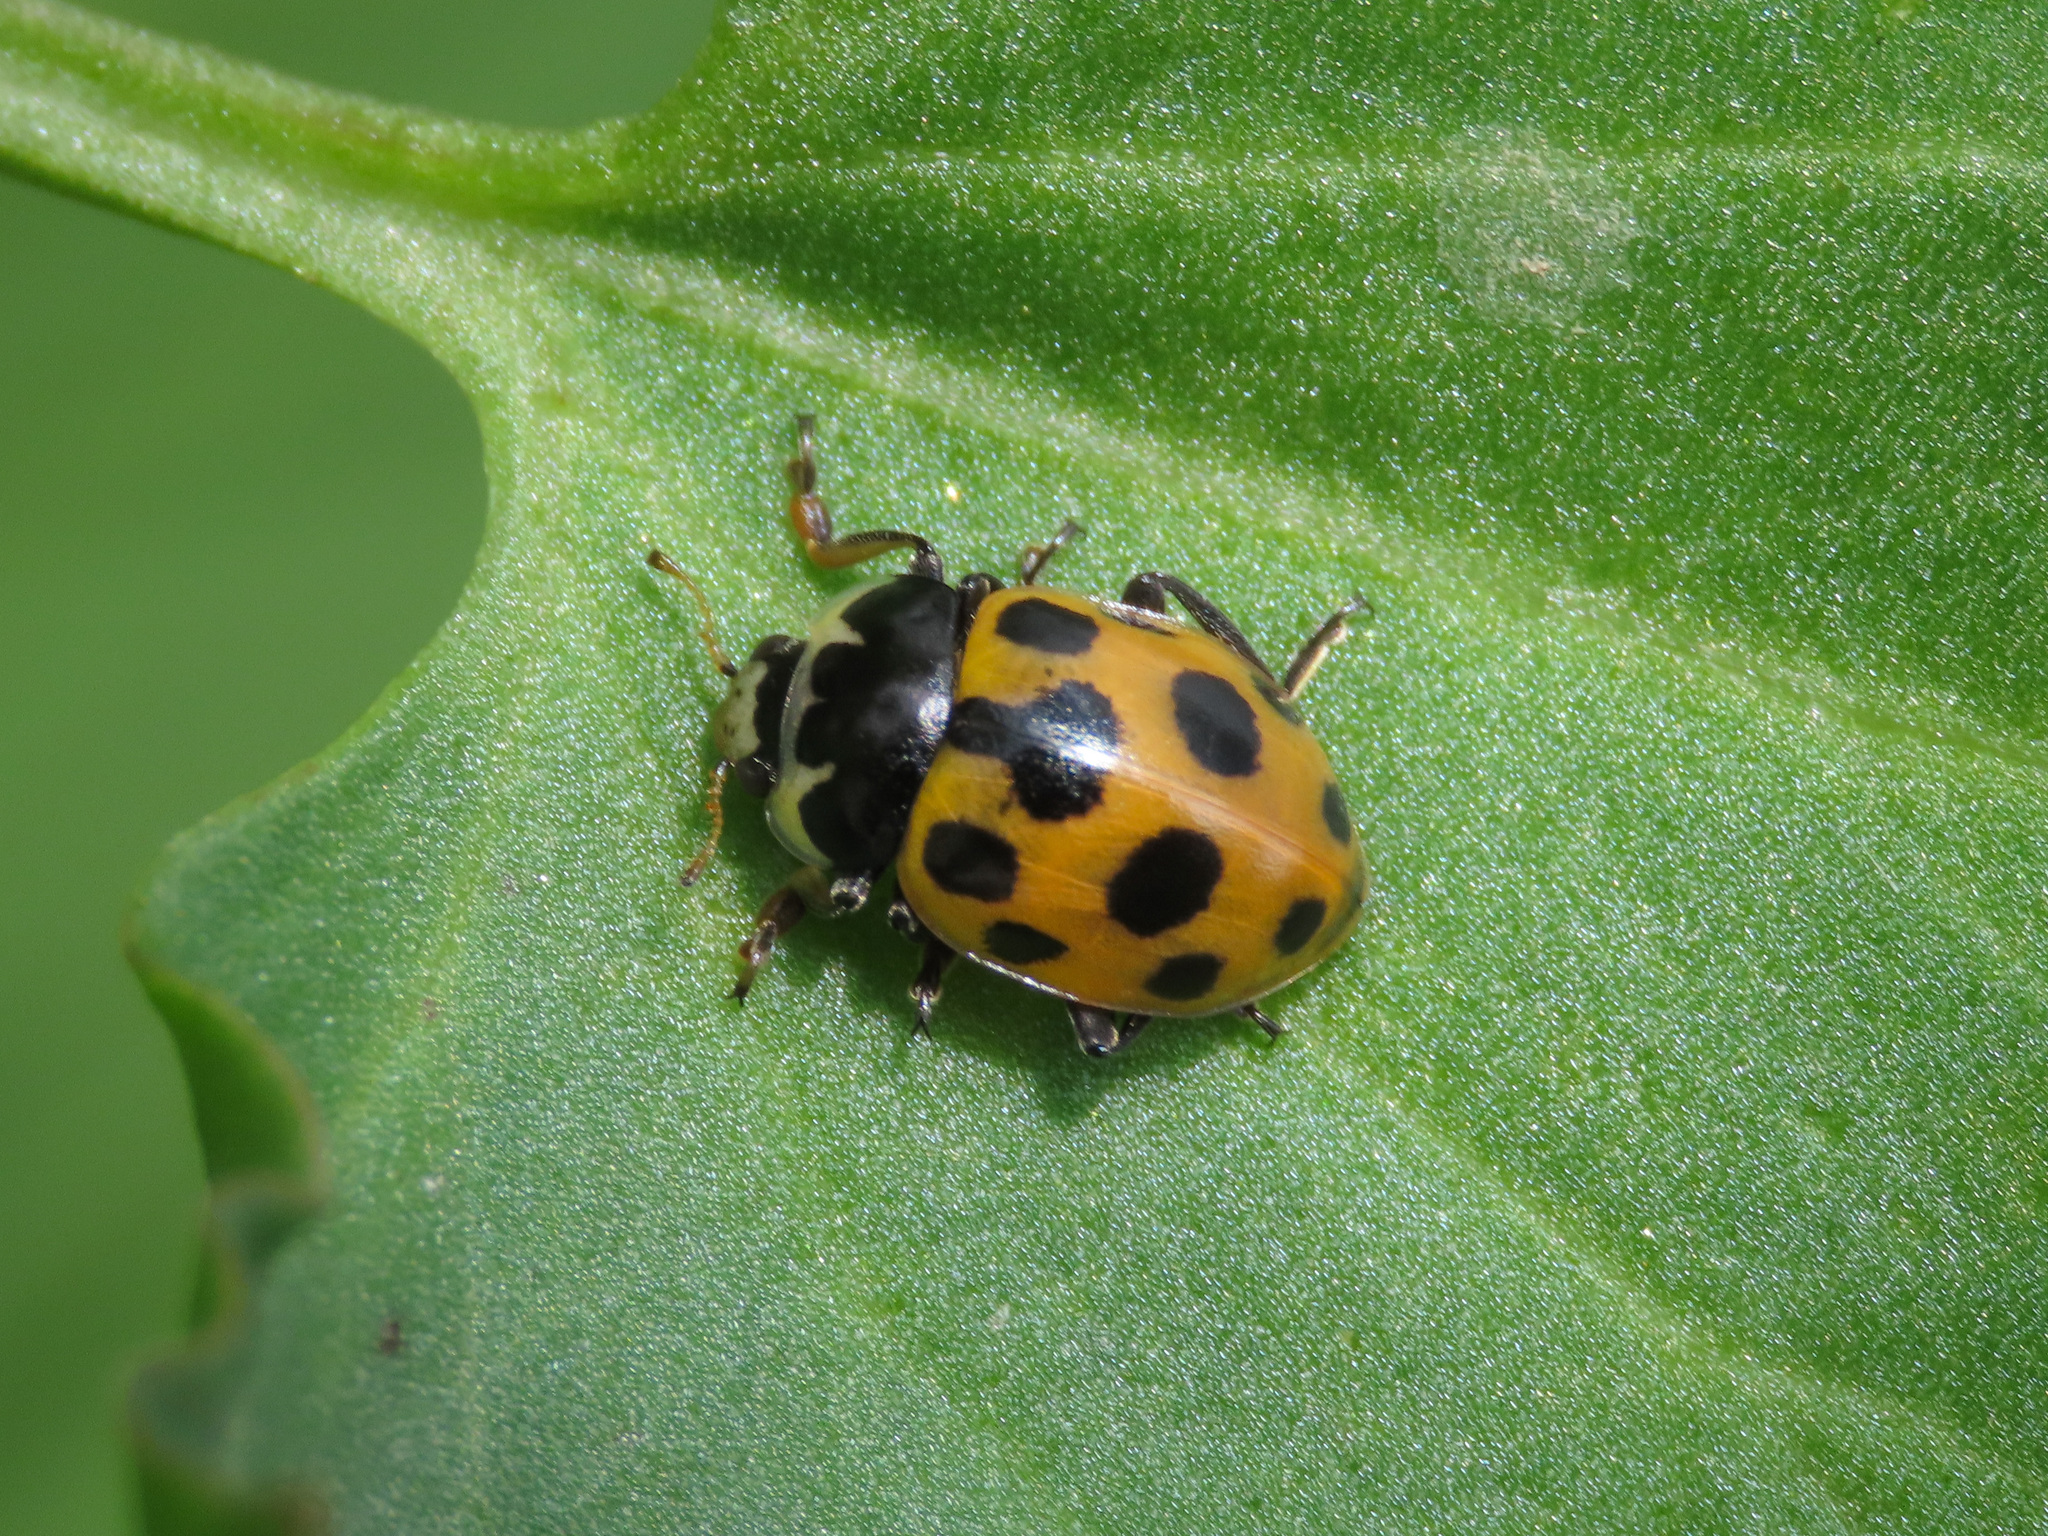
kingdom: Animalia
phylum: Arthropoda
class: Insecta
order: Coleoptera
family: Coccinellidae
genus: Ceratomegilla
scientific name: Ceratomegilla notata
